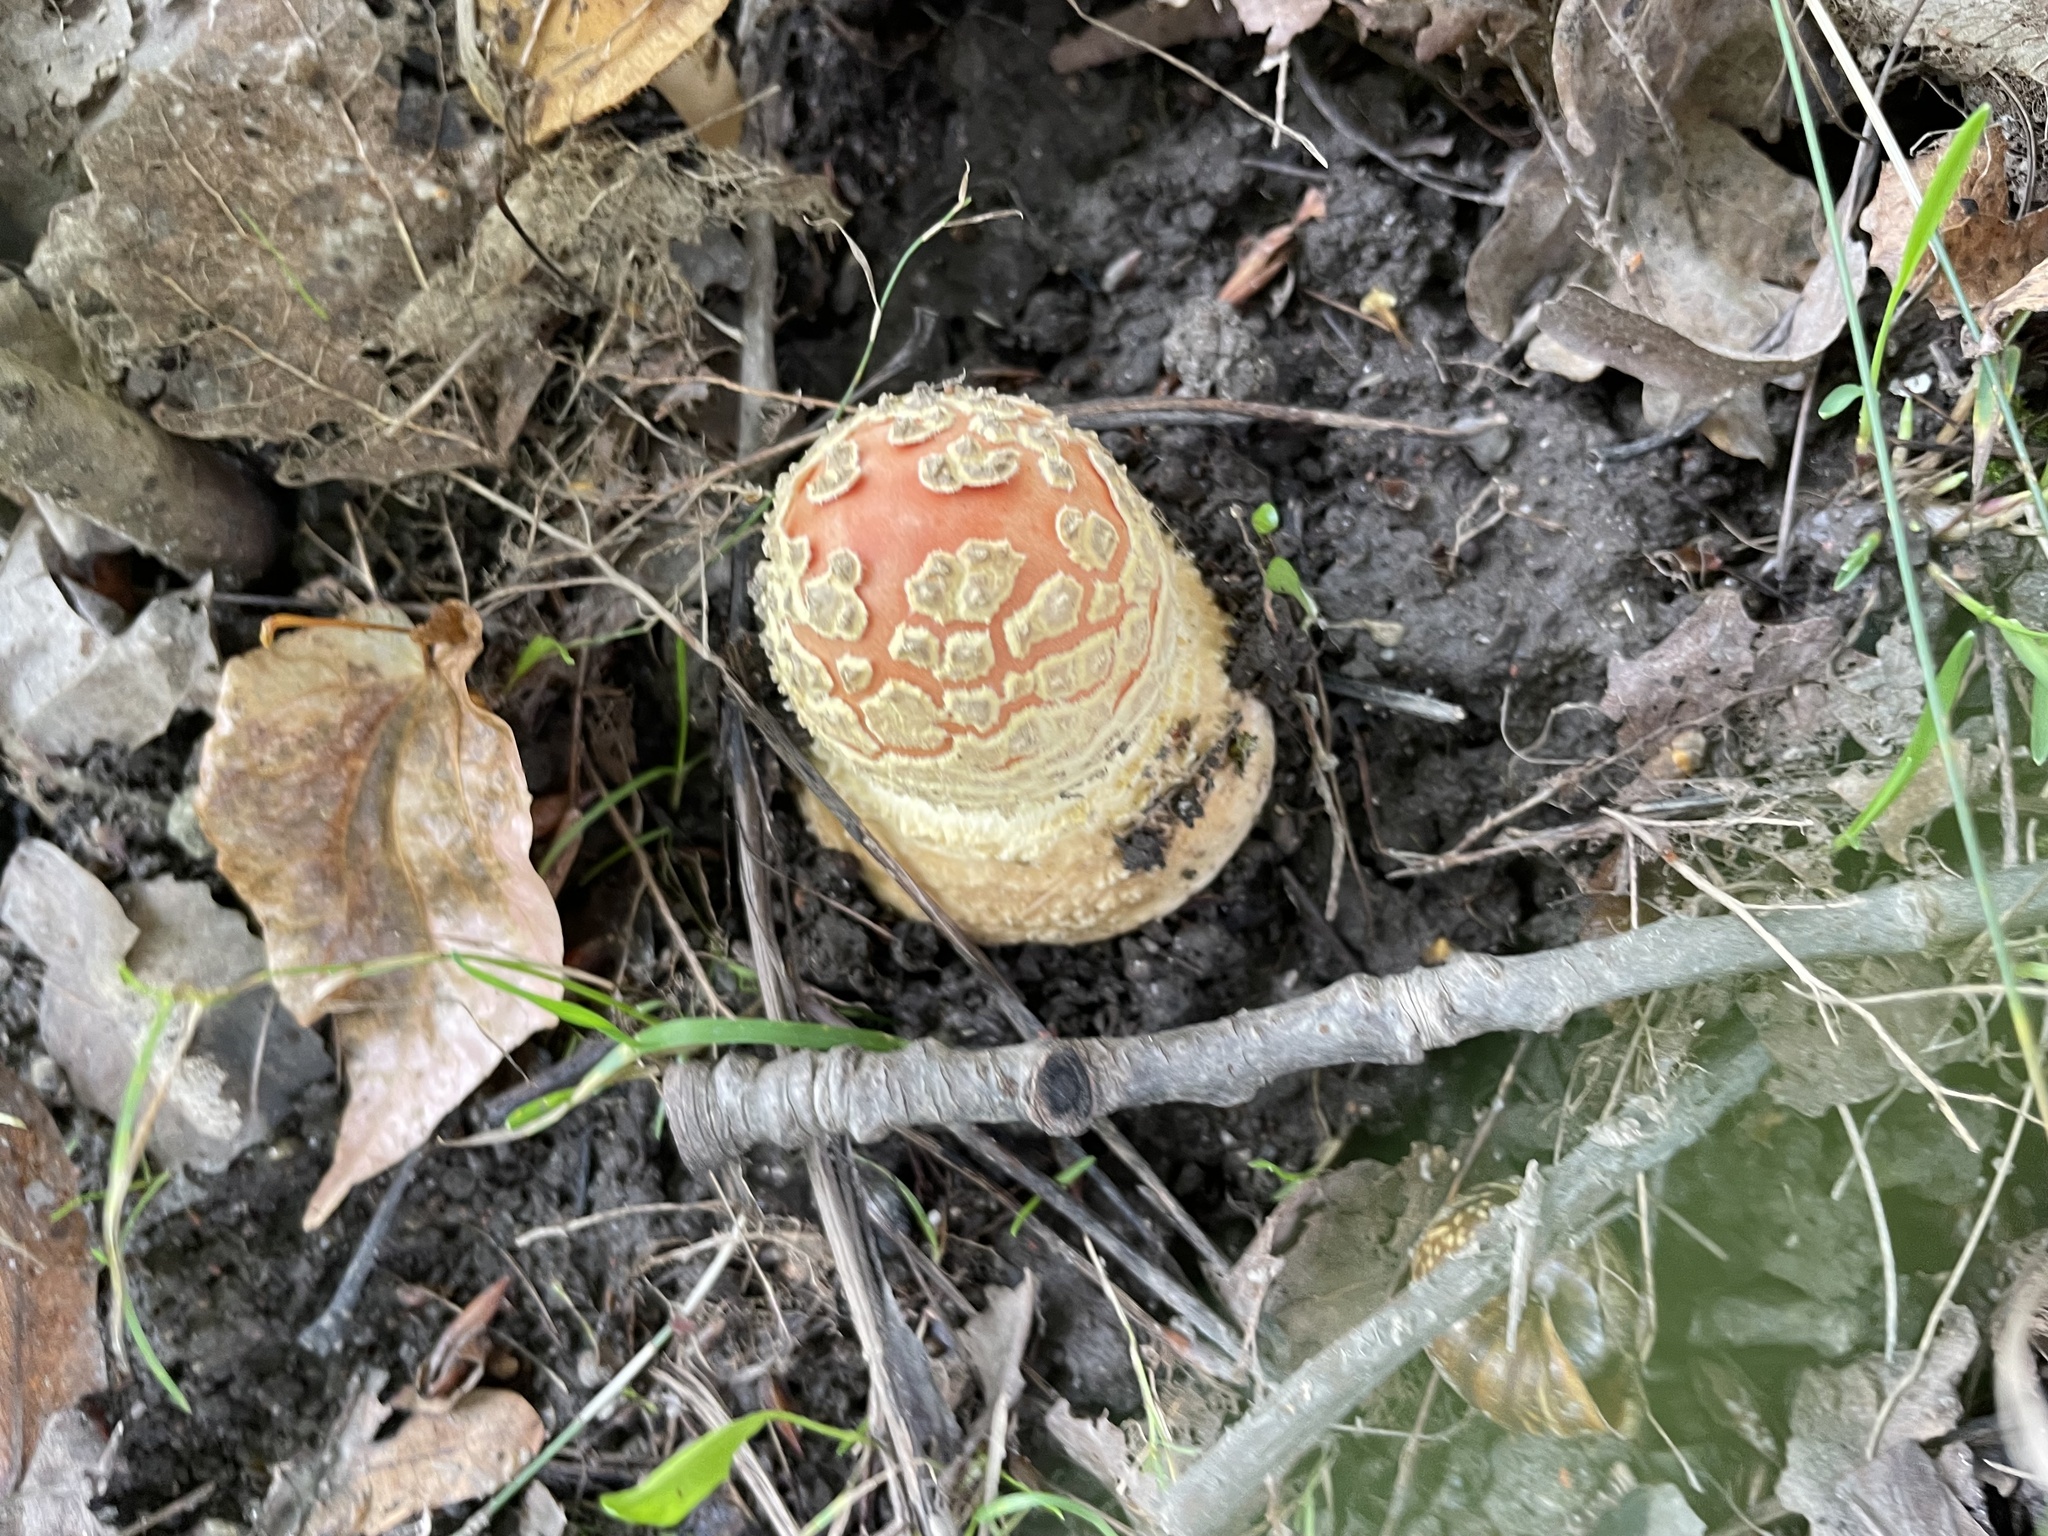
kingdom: Fungi
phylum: Basidiomycota
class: Agaricomycetes
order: Agaricales
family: Amanitaceae
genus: Amanita
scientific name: Amanita muscaria
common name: Fly agaric
